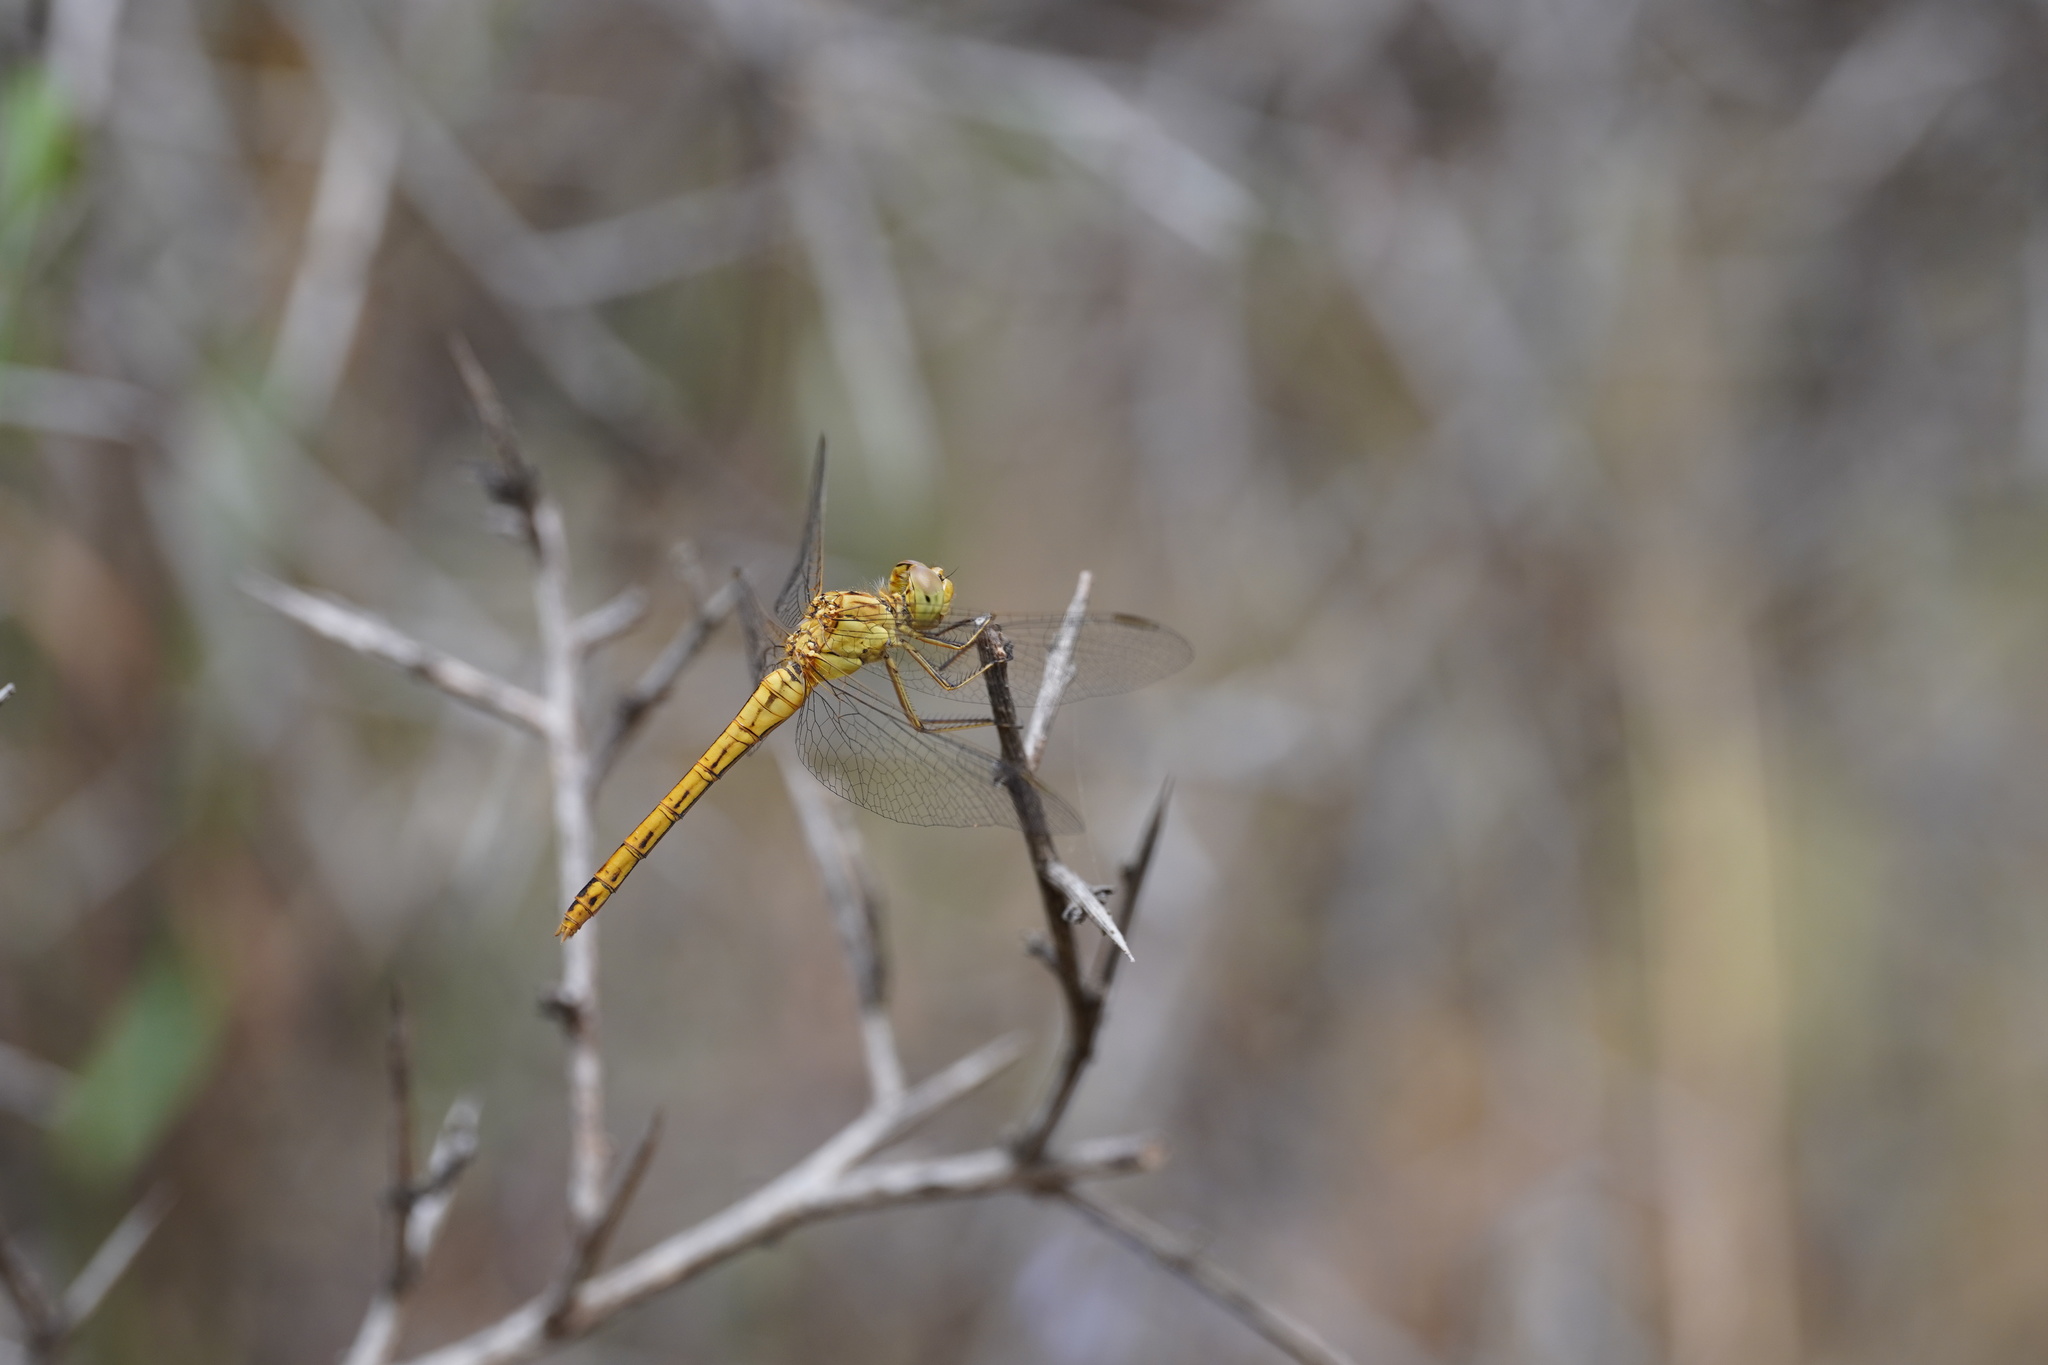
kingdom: Animalia
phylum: Arthropoda
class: Insecta
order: Odonata
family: Libellulidae
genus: Sympetrum
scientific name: Sympetrum meridionale
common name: Southern darter
